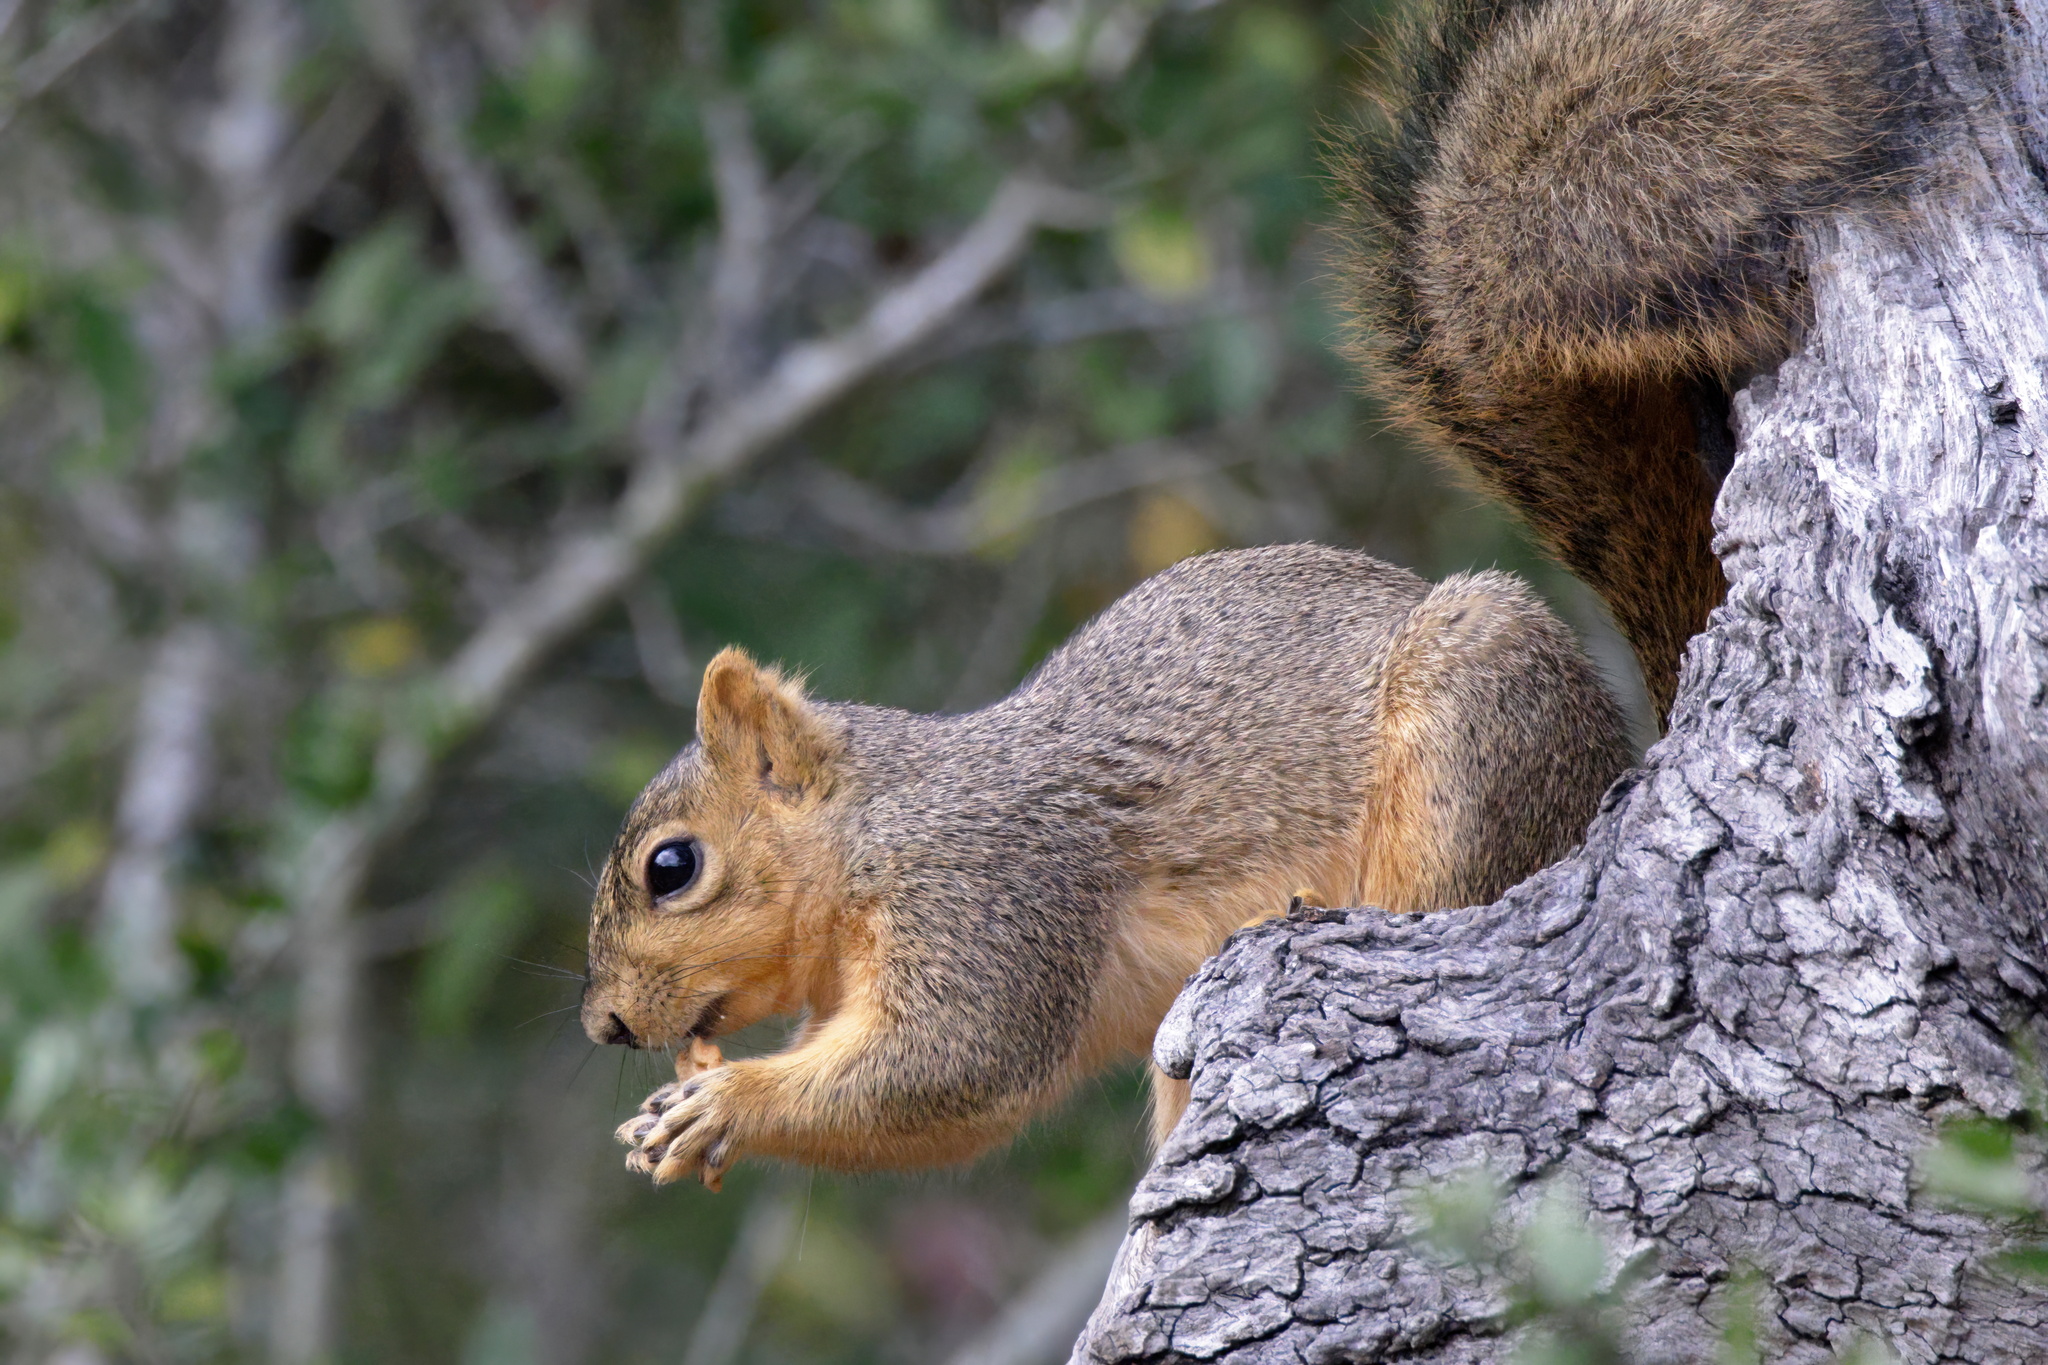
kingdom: Animalia
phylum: Chordata
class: Mammalia
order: Rodentia
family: Sciuridae
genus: Sciurus
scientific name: Sciurus niger
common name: Fox squirrel
